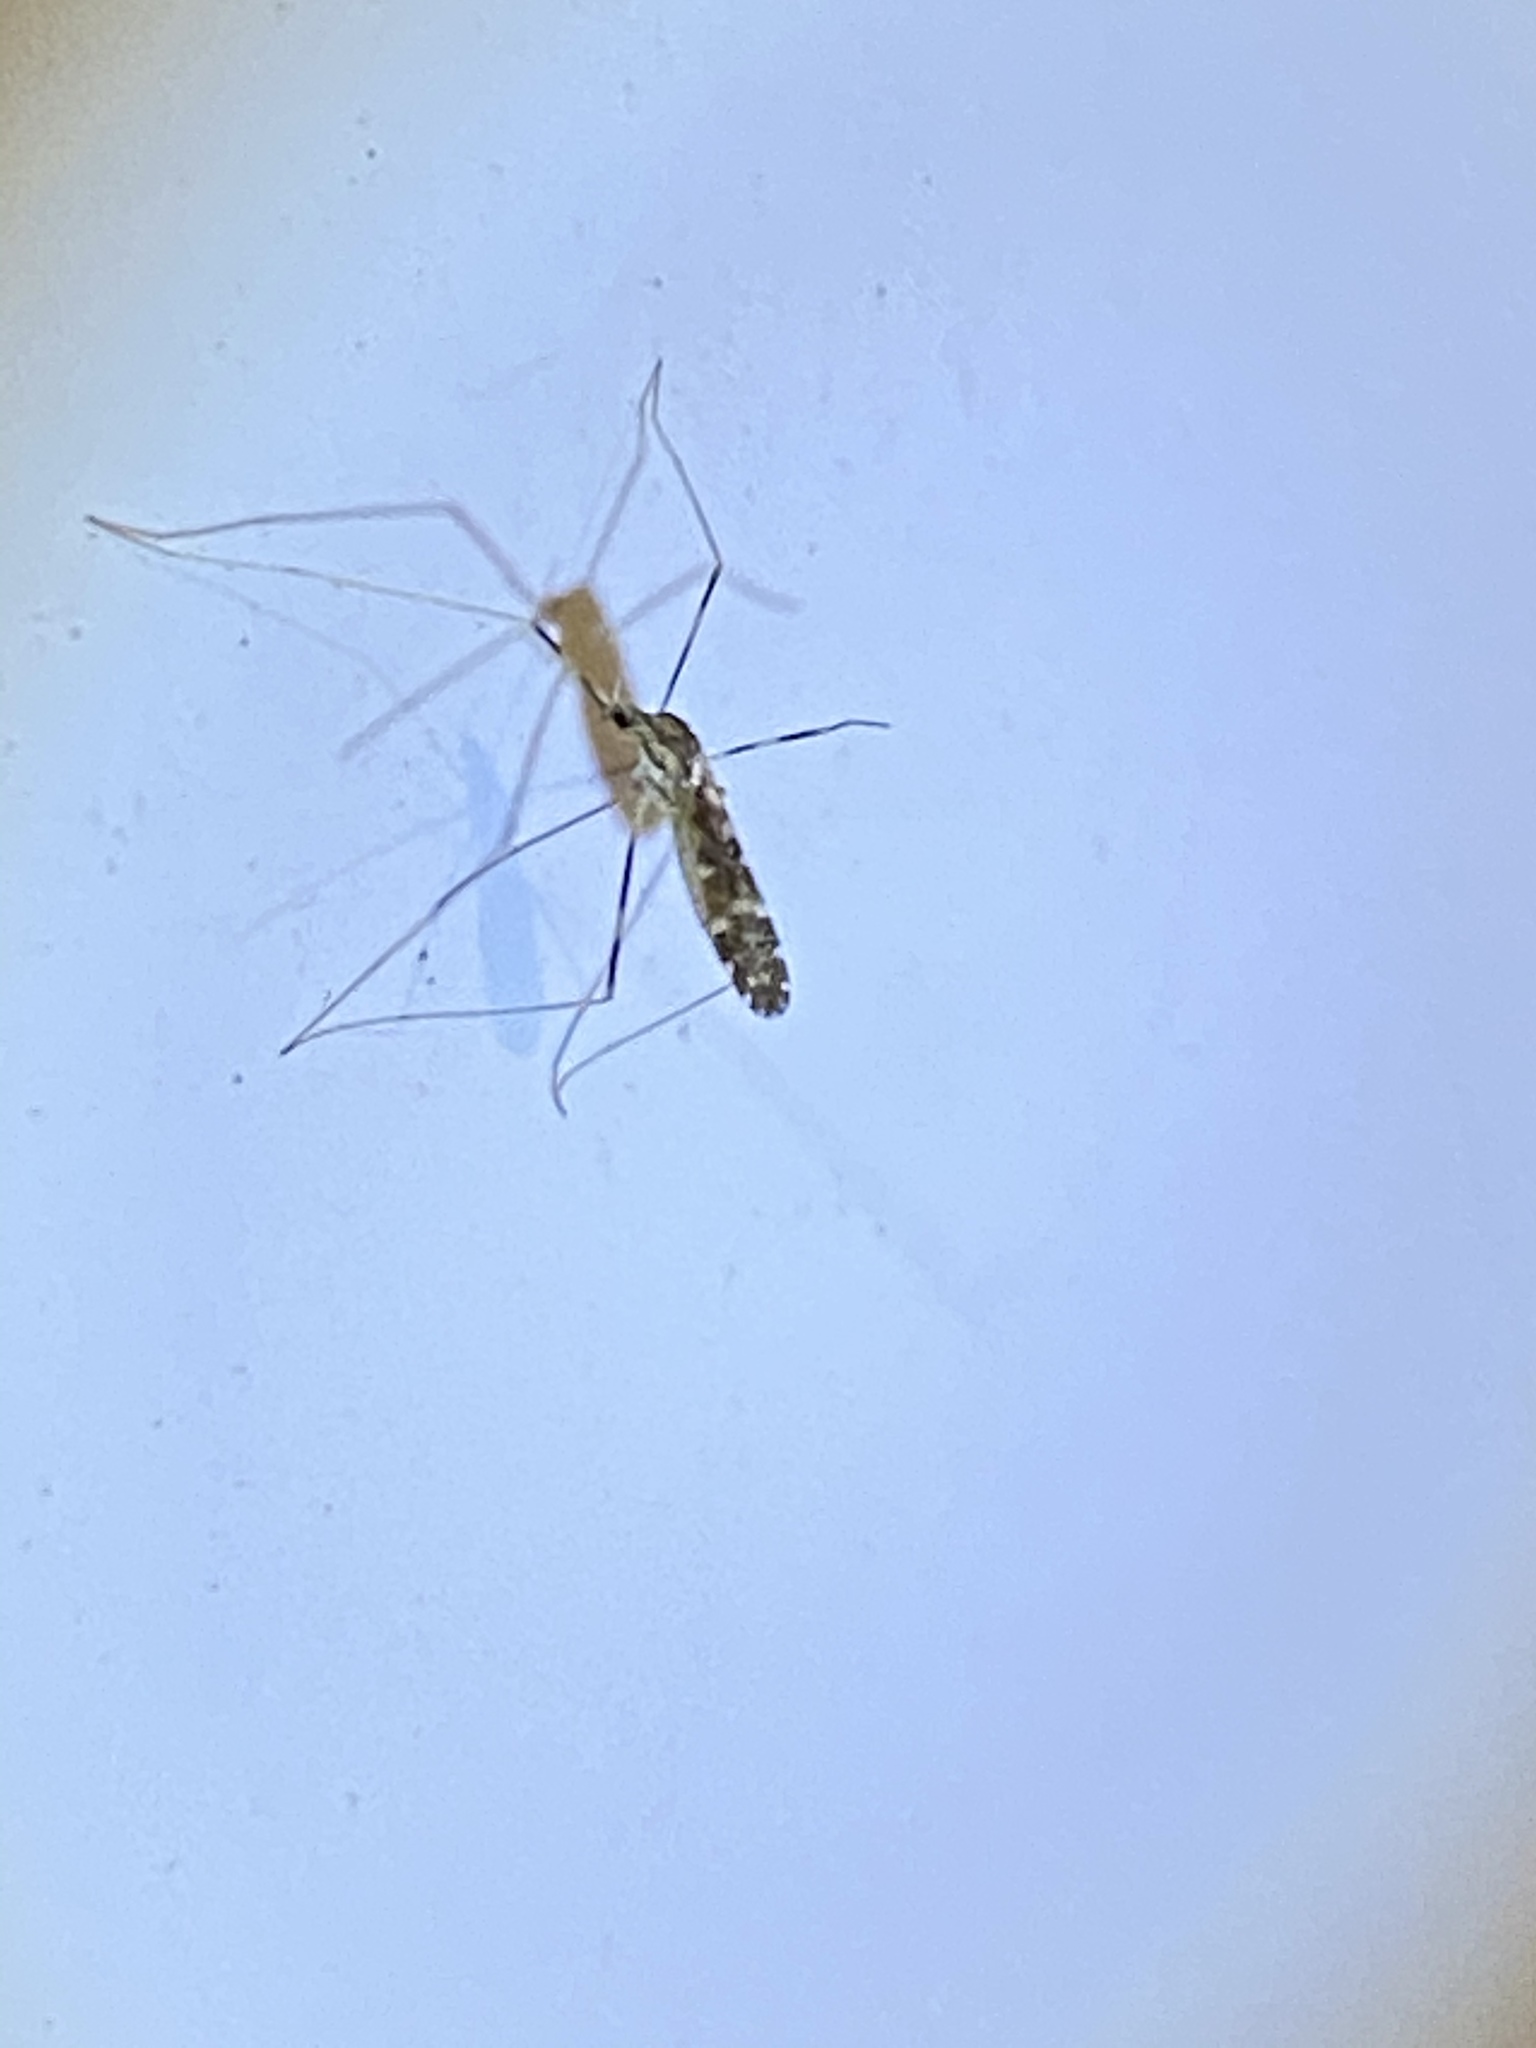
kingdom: Animalia
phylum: Arthropoda
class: Insecta
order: Diptera
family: Limoniidae
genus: Erioptera
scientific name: Erioptera caliptera
